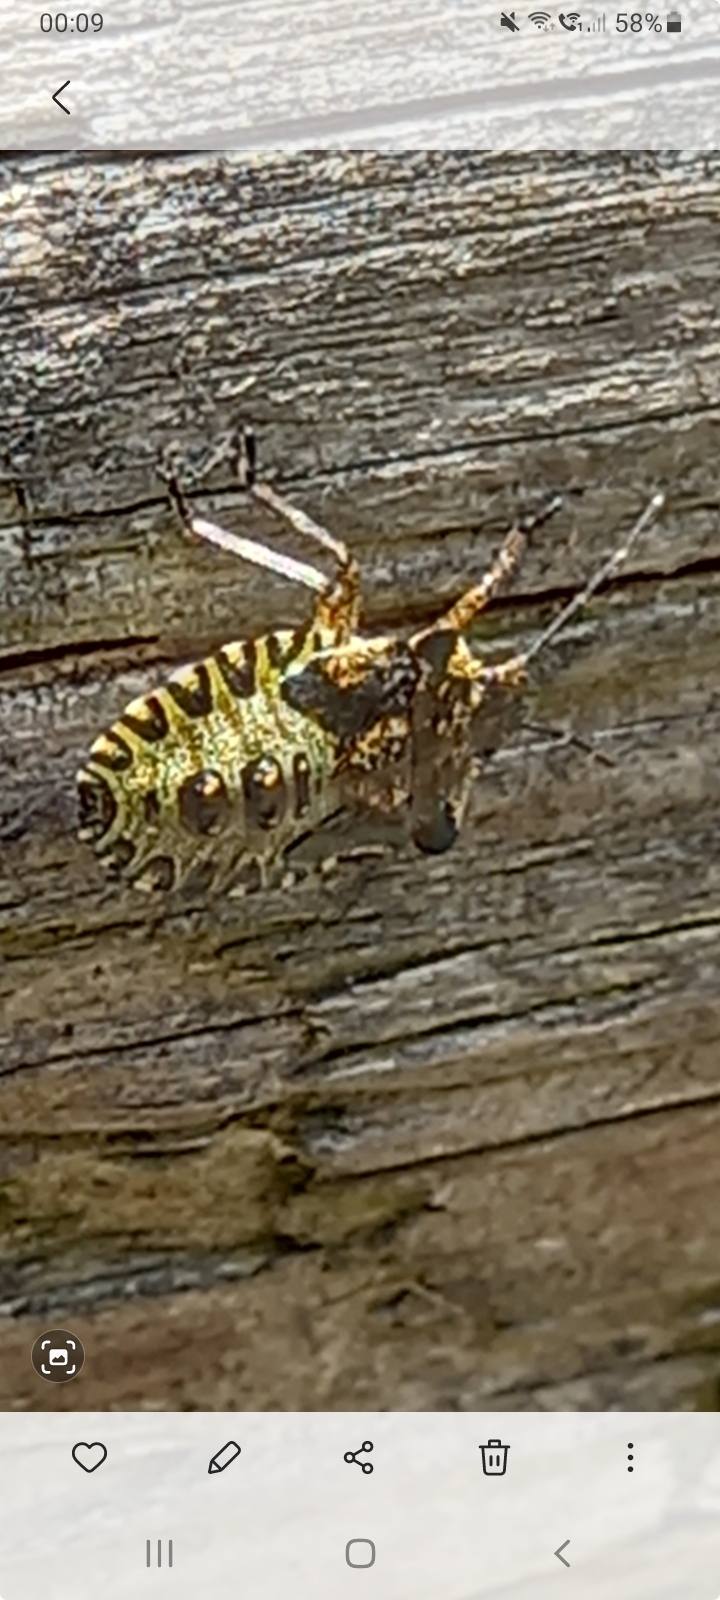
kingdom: Animalia
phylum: Arthropoda
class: Insecta
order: Hemiptera
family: Pentatomidae
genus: Pentatoma
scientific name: Pentatoma rufipes
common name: Forest bug
